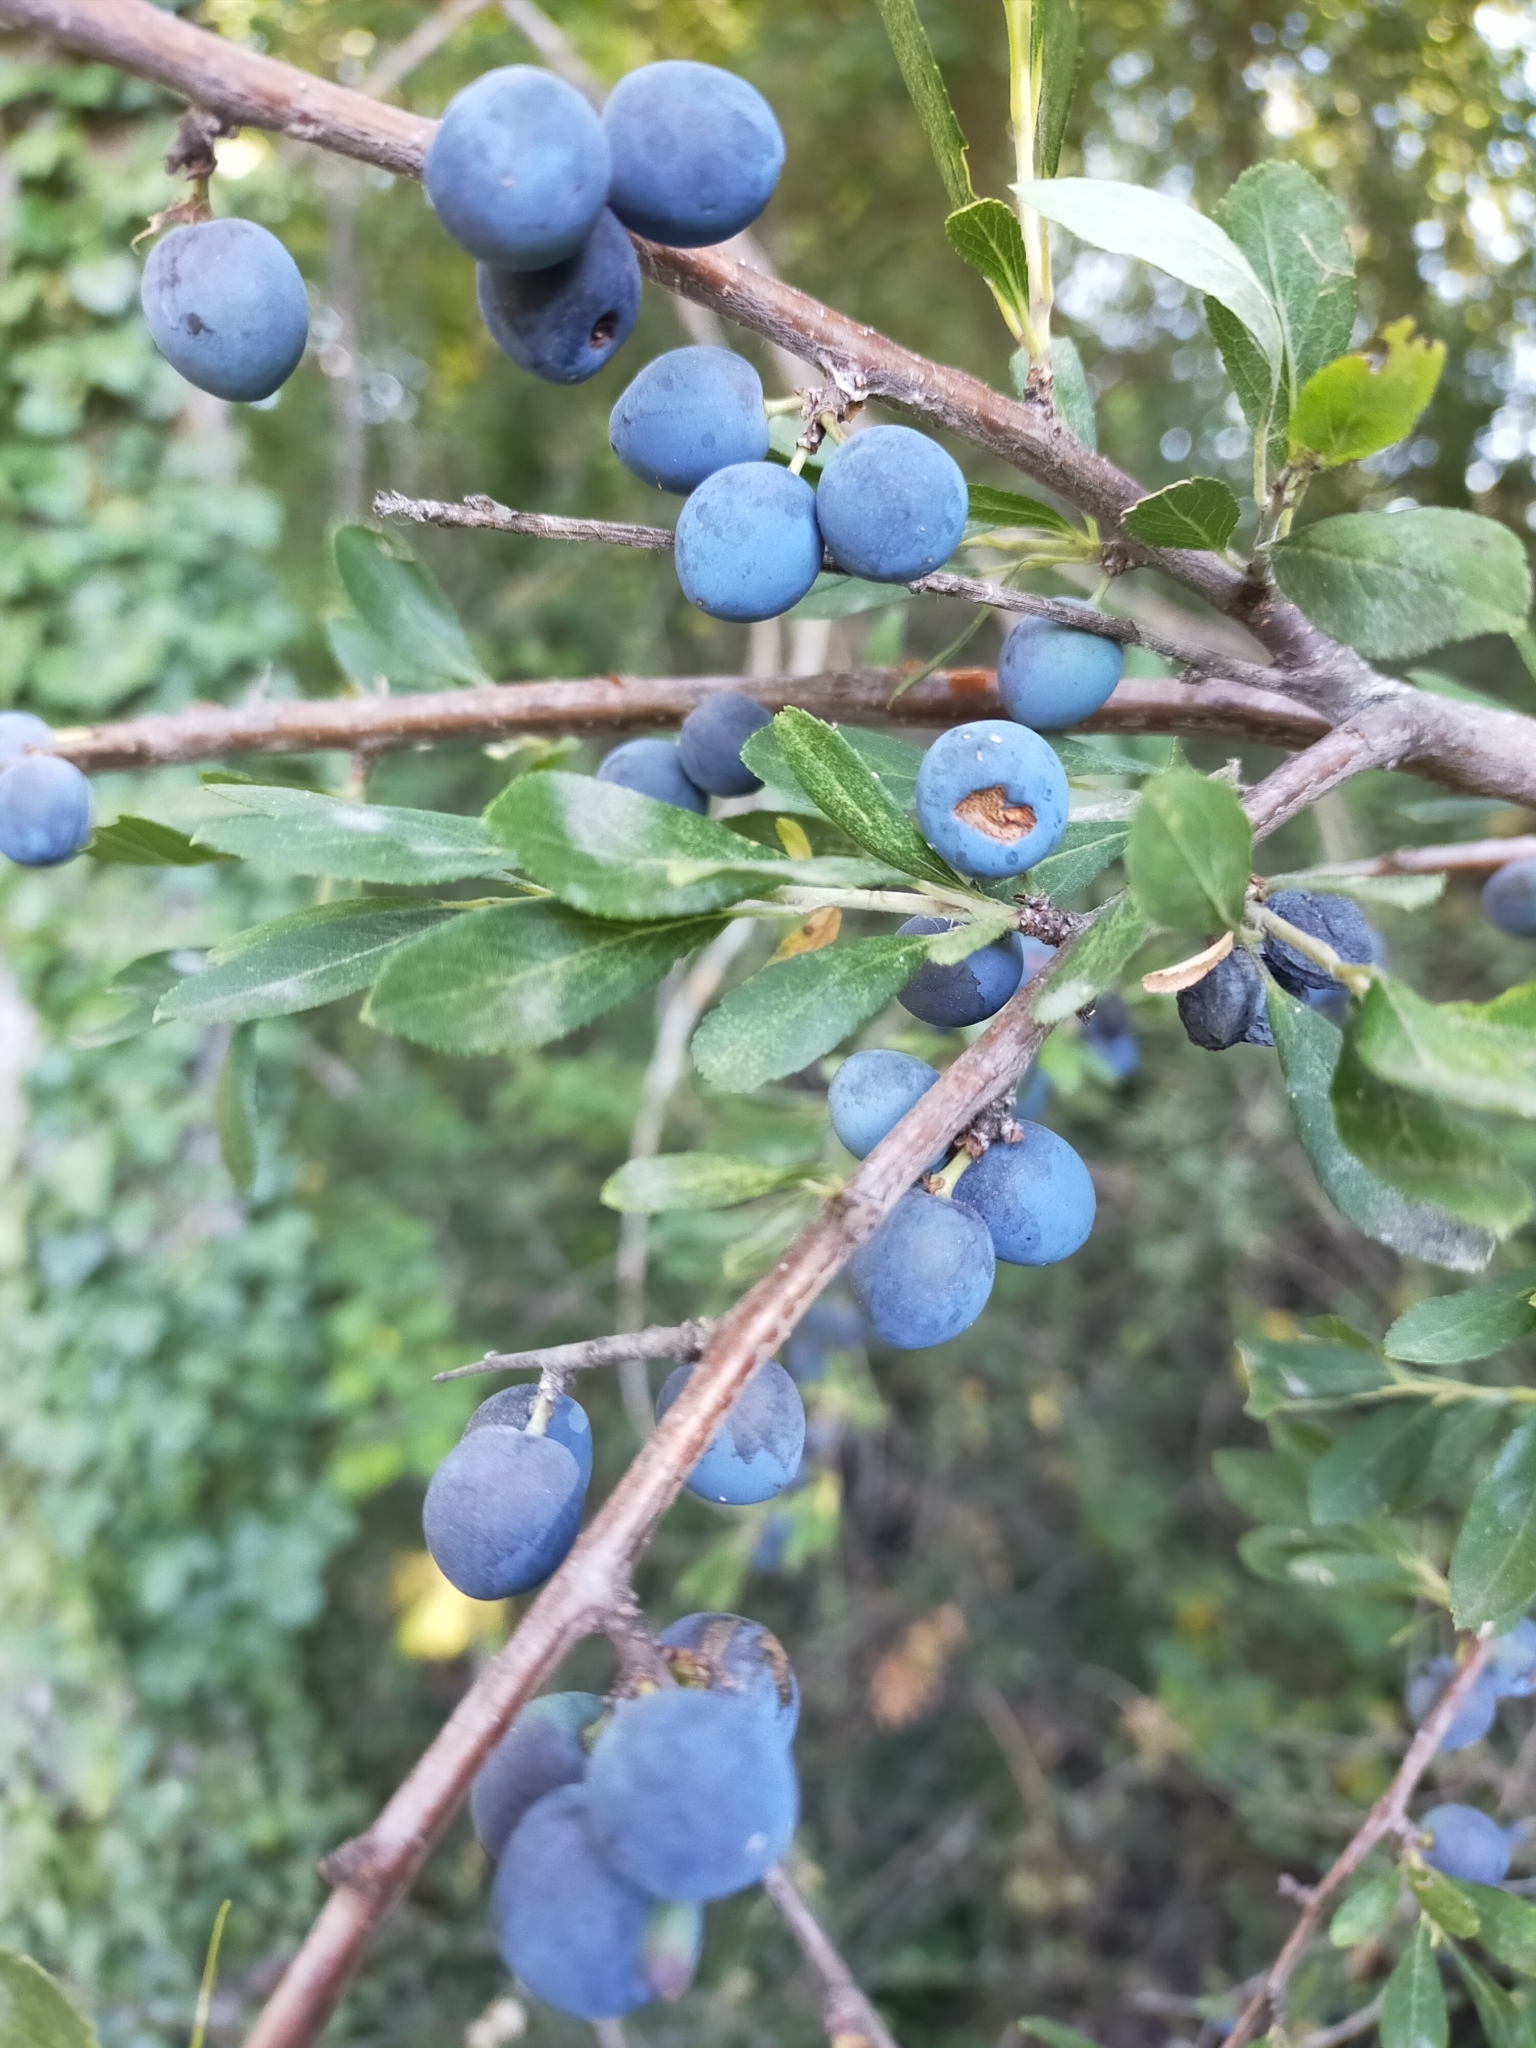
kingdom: Plantae
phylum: Tracheophyta
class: Magnoliopsida
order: Rosales
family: Rosaceae
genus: Prunus
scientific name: Prunus spinosa
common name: Blackthorn
